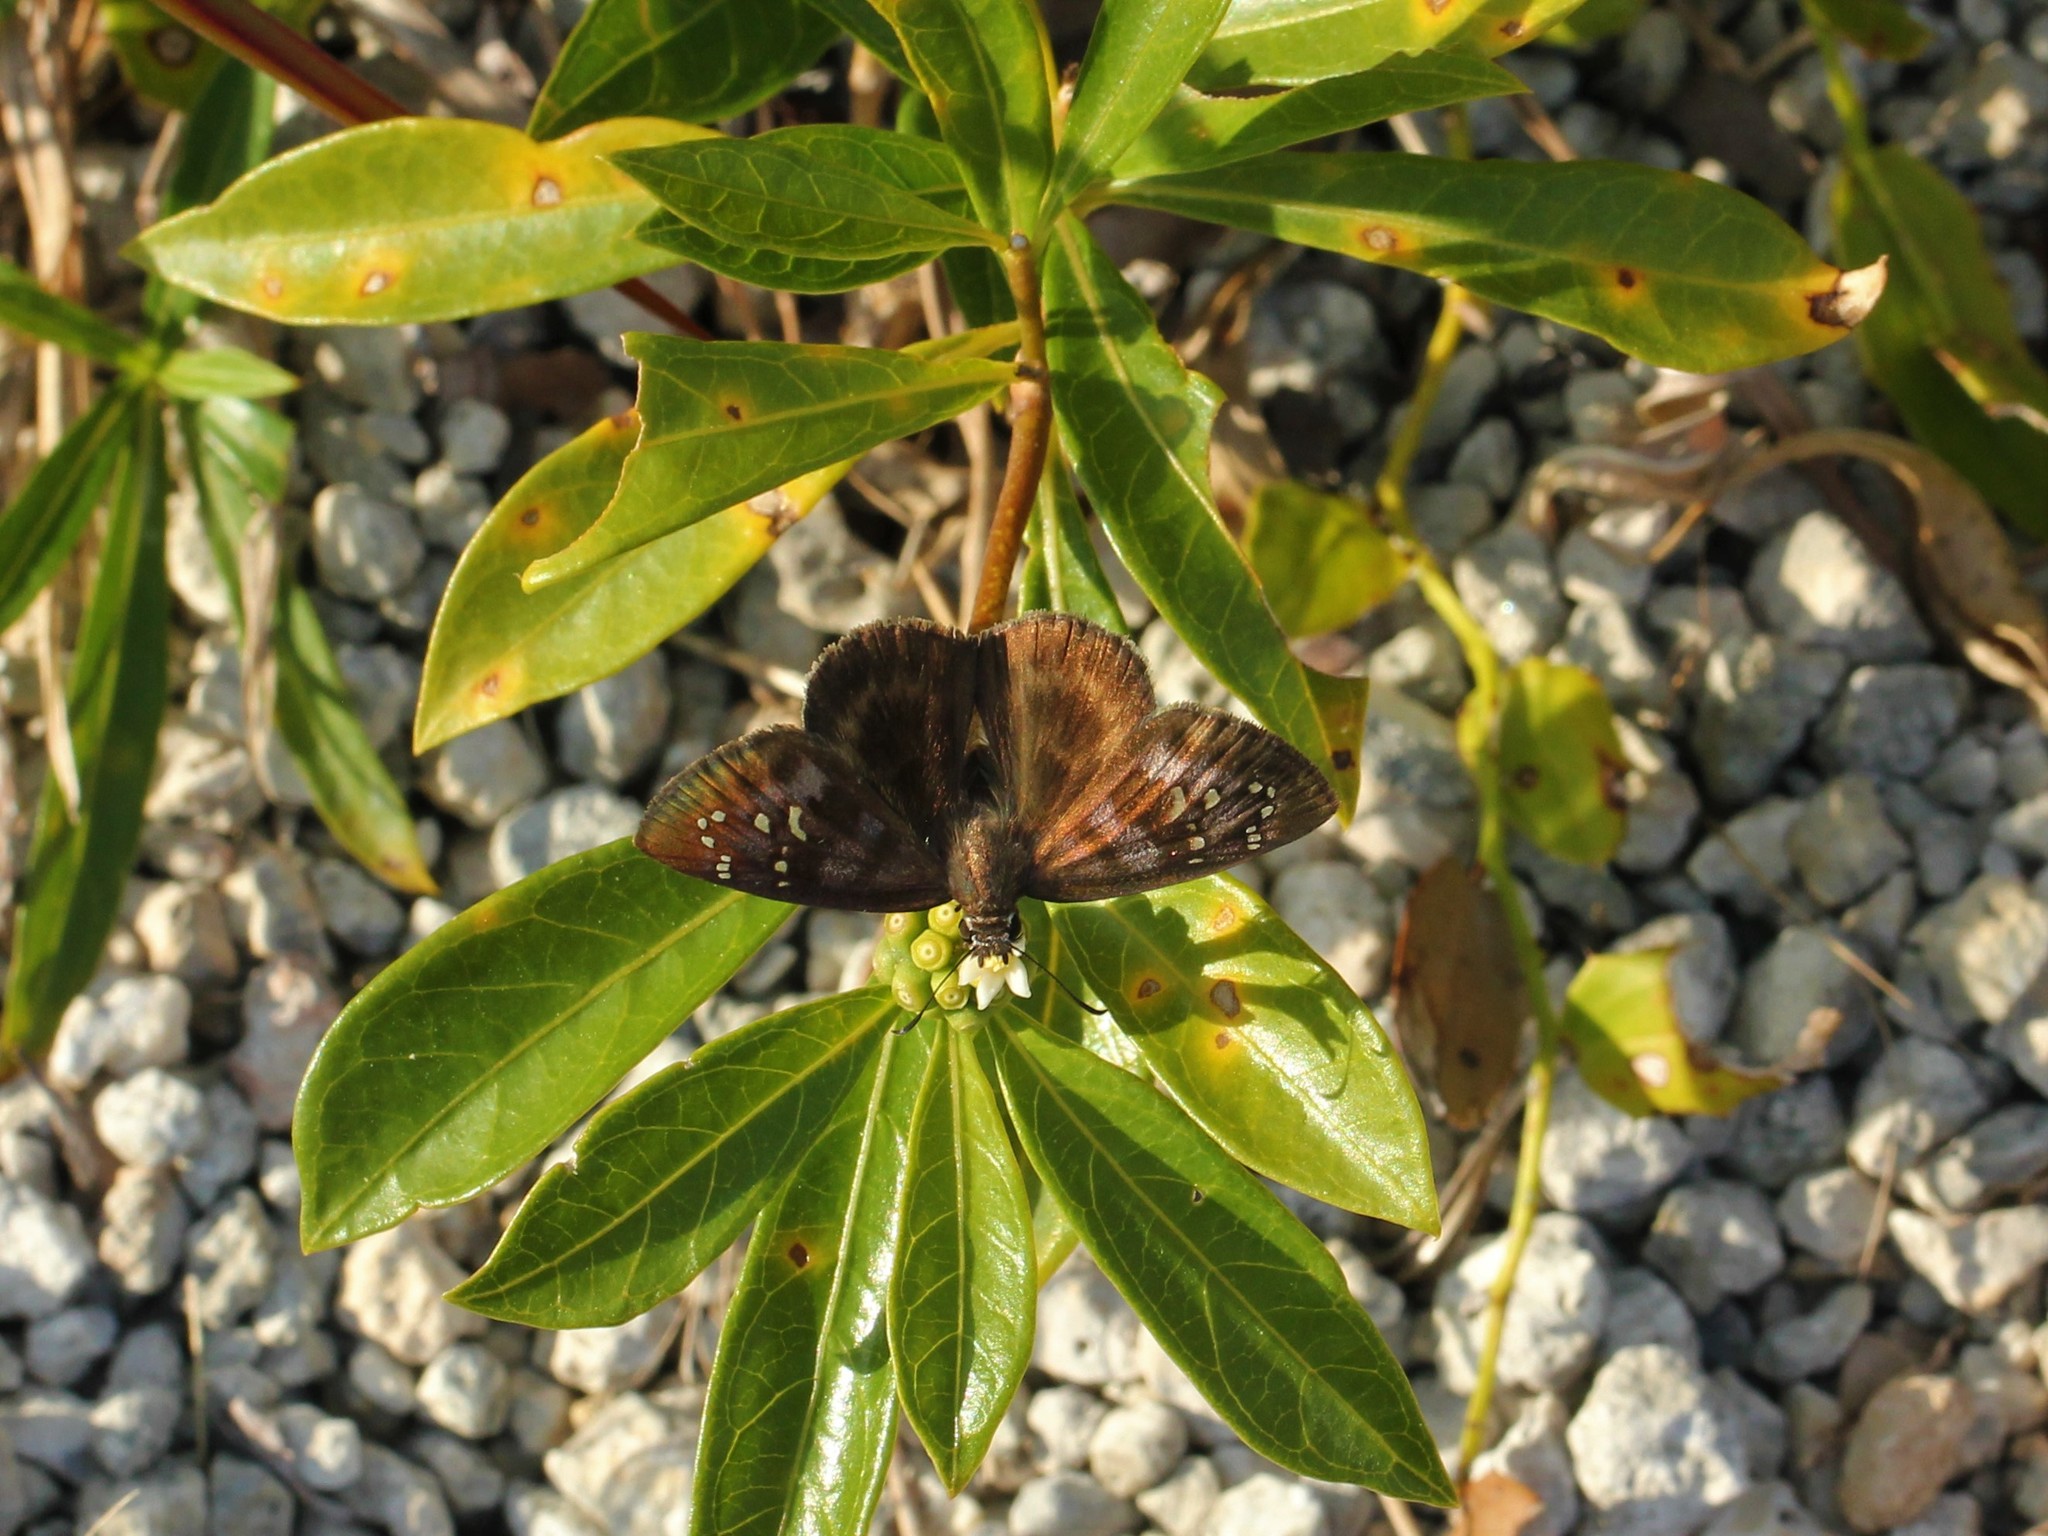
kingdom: Animalia
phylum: Arthropoda
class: Insecta
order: Lepidoptera
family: Hesperiidae
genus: Ephyriades
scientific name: Ephyriades brunnea
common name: Florida duskywing
